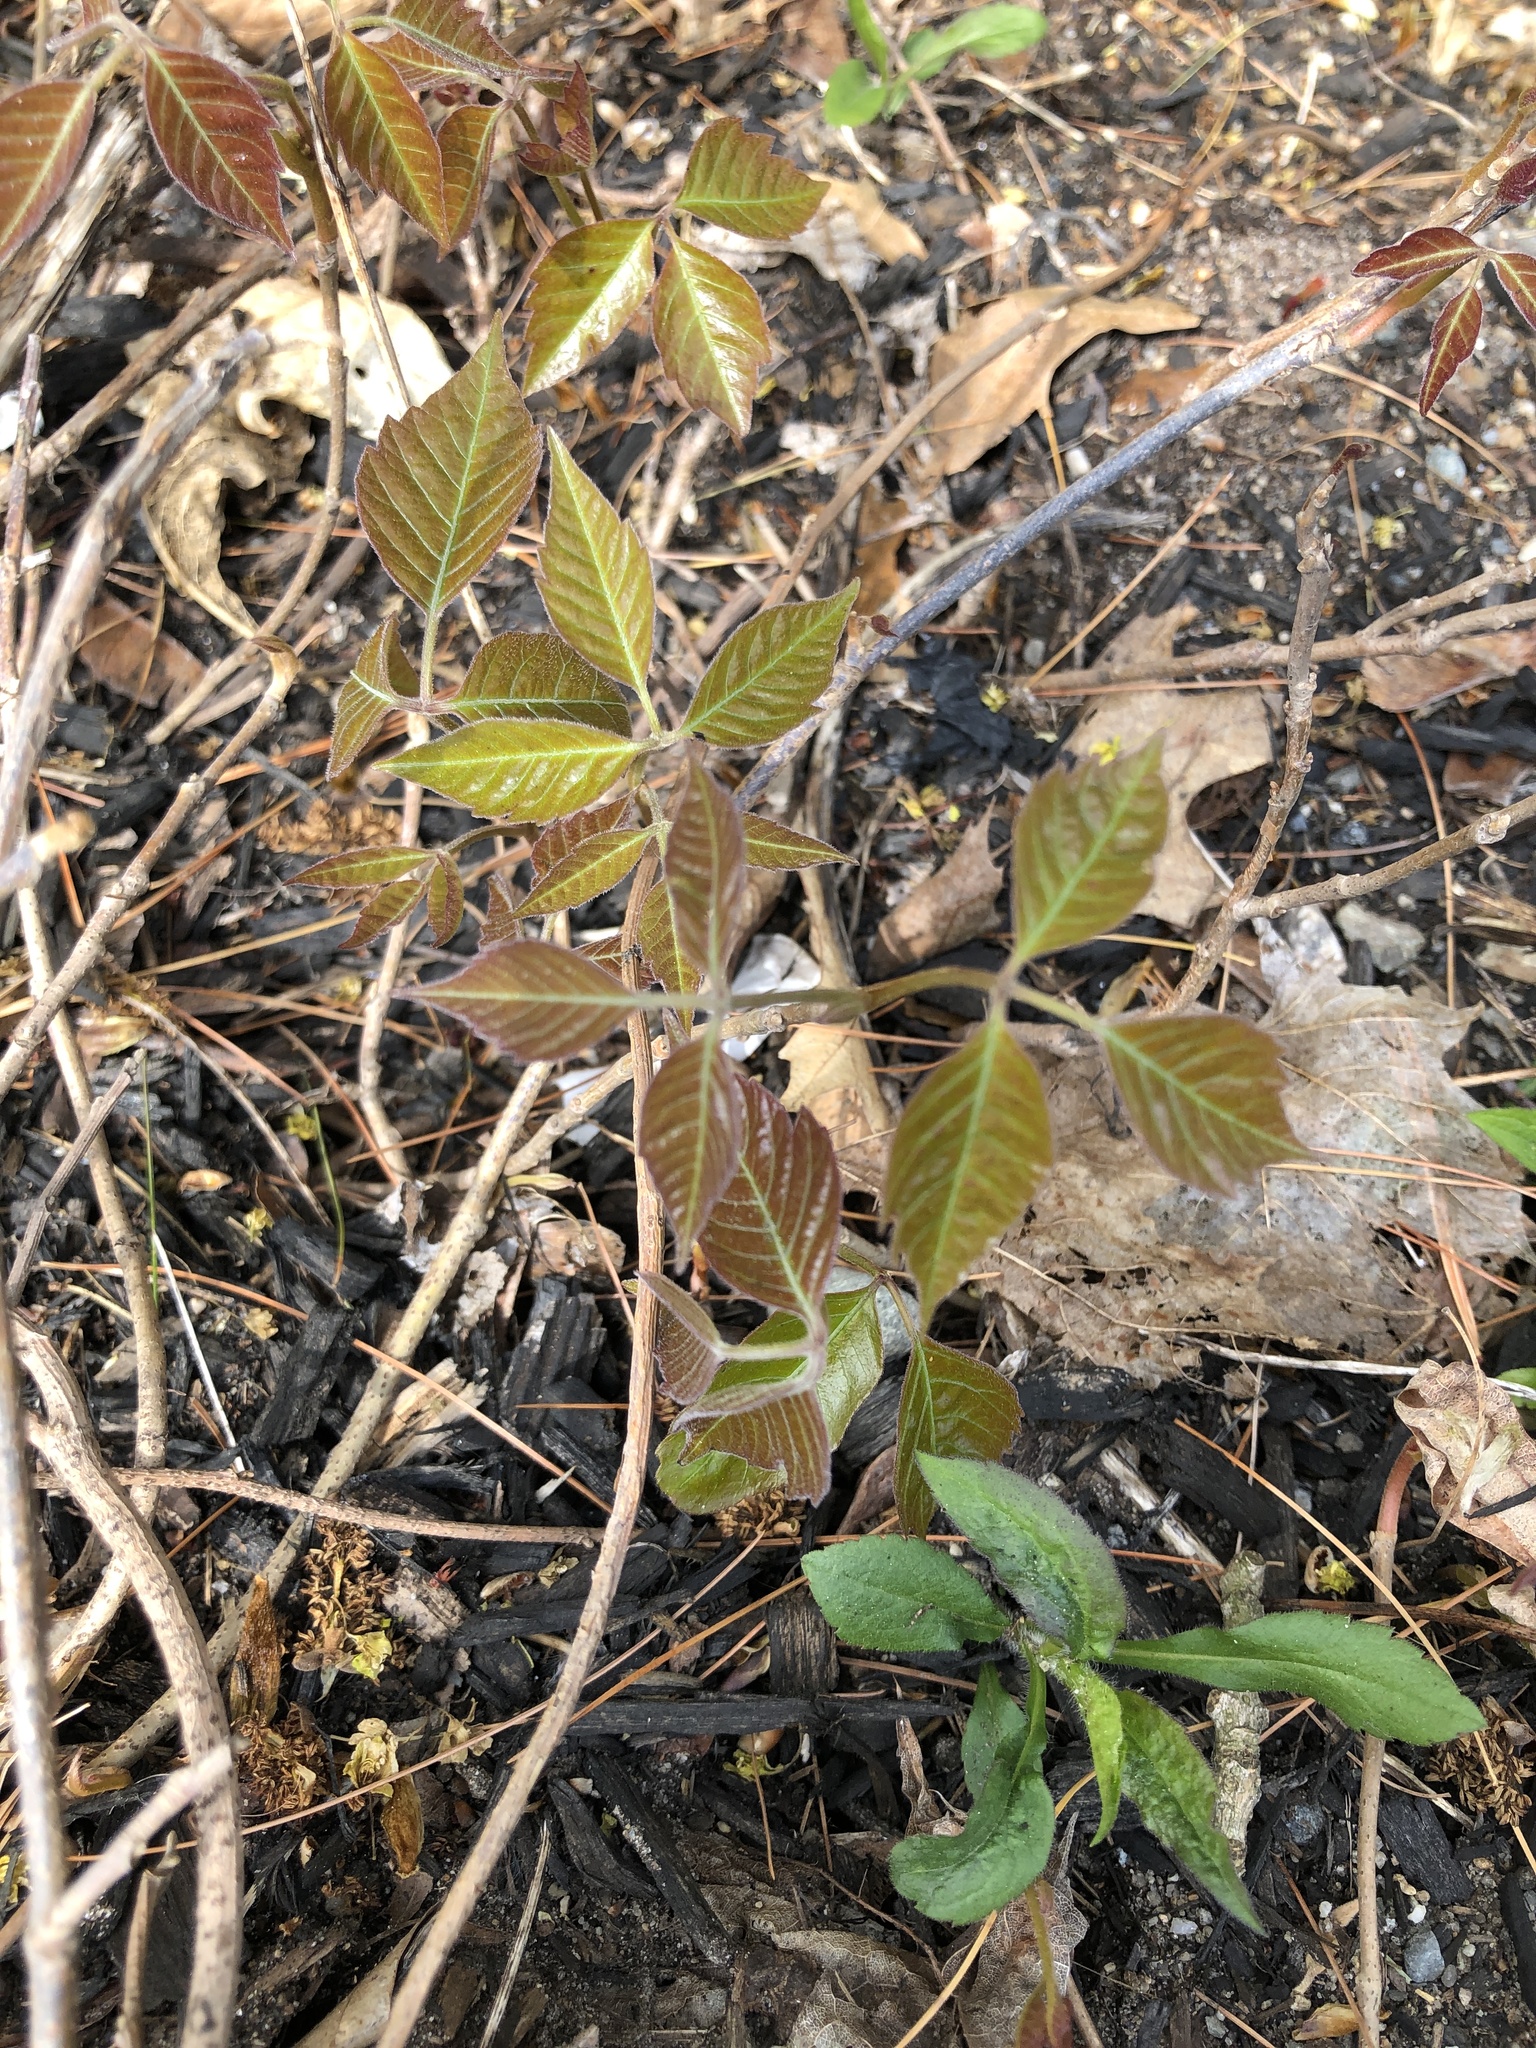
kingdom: Plantae
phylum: Tracheophyta
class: Magnoliopsida
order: Sapindales
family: Anacardiaceae
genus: Toxicodendron
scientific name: Toxicodendron radicans
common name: Poison ivy
